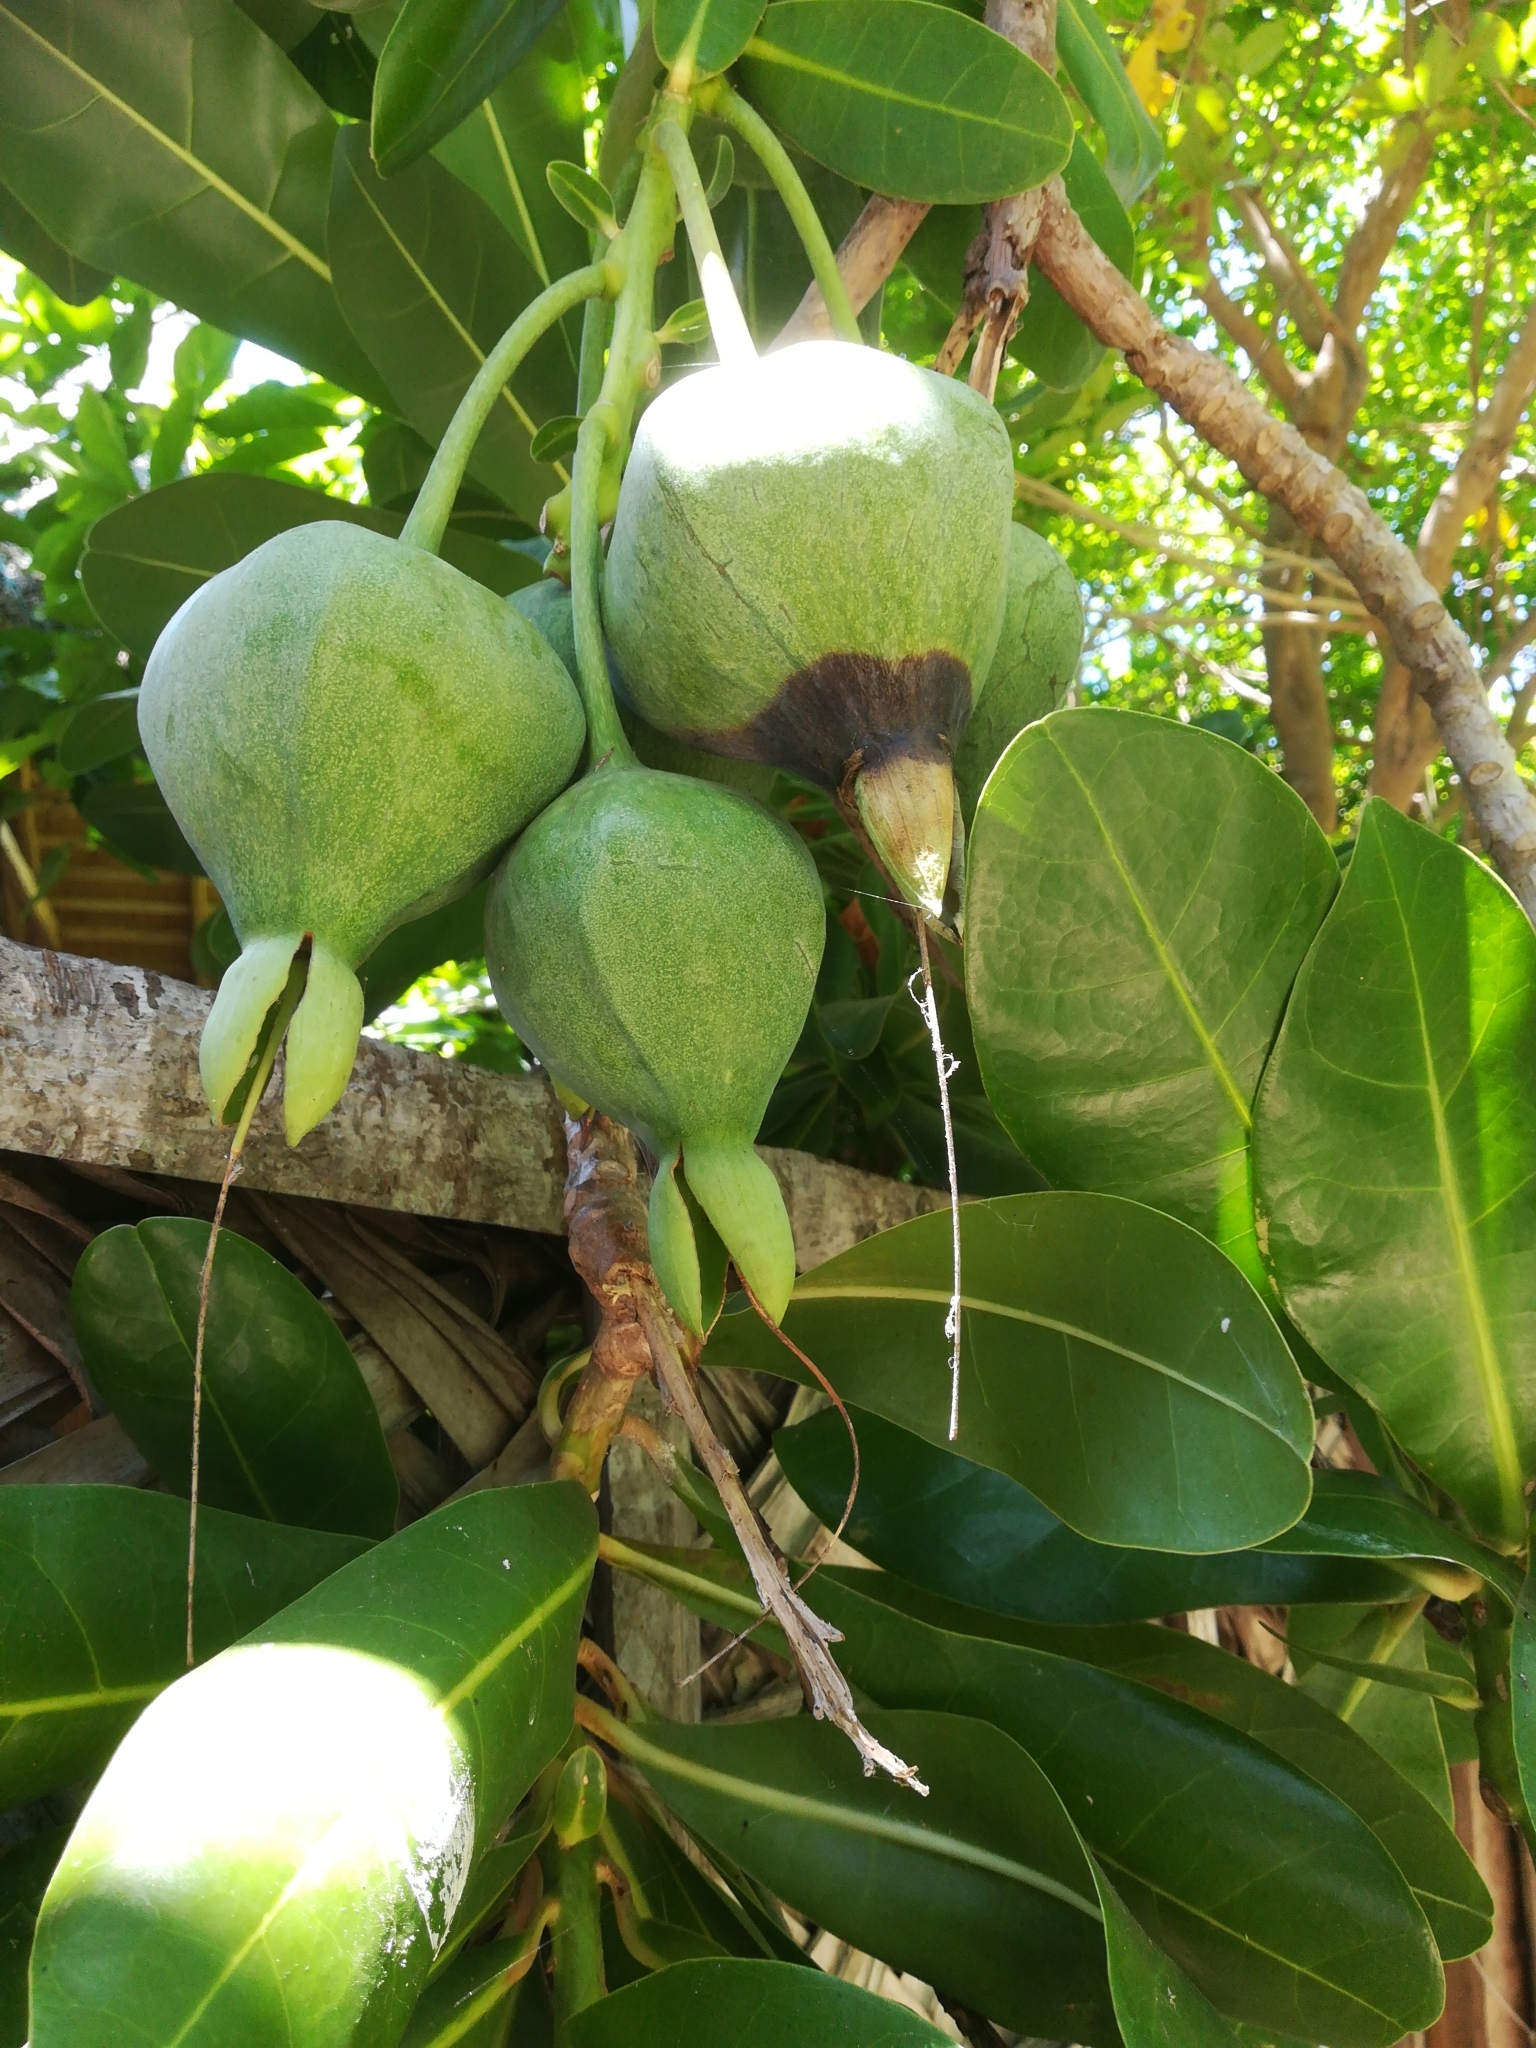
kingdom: Plantae
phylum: Tracheophyta
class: Magnoliopsida
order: Ericales
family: Lecythidaceae
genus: Barringtonia
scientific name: Barringtonia asiatica
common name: Mango-pine
